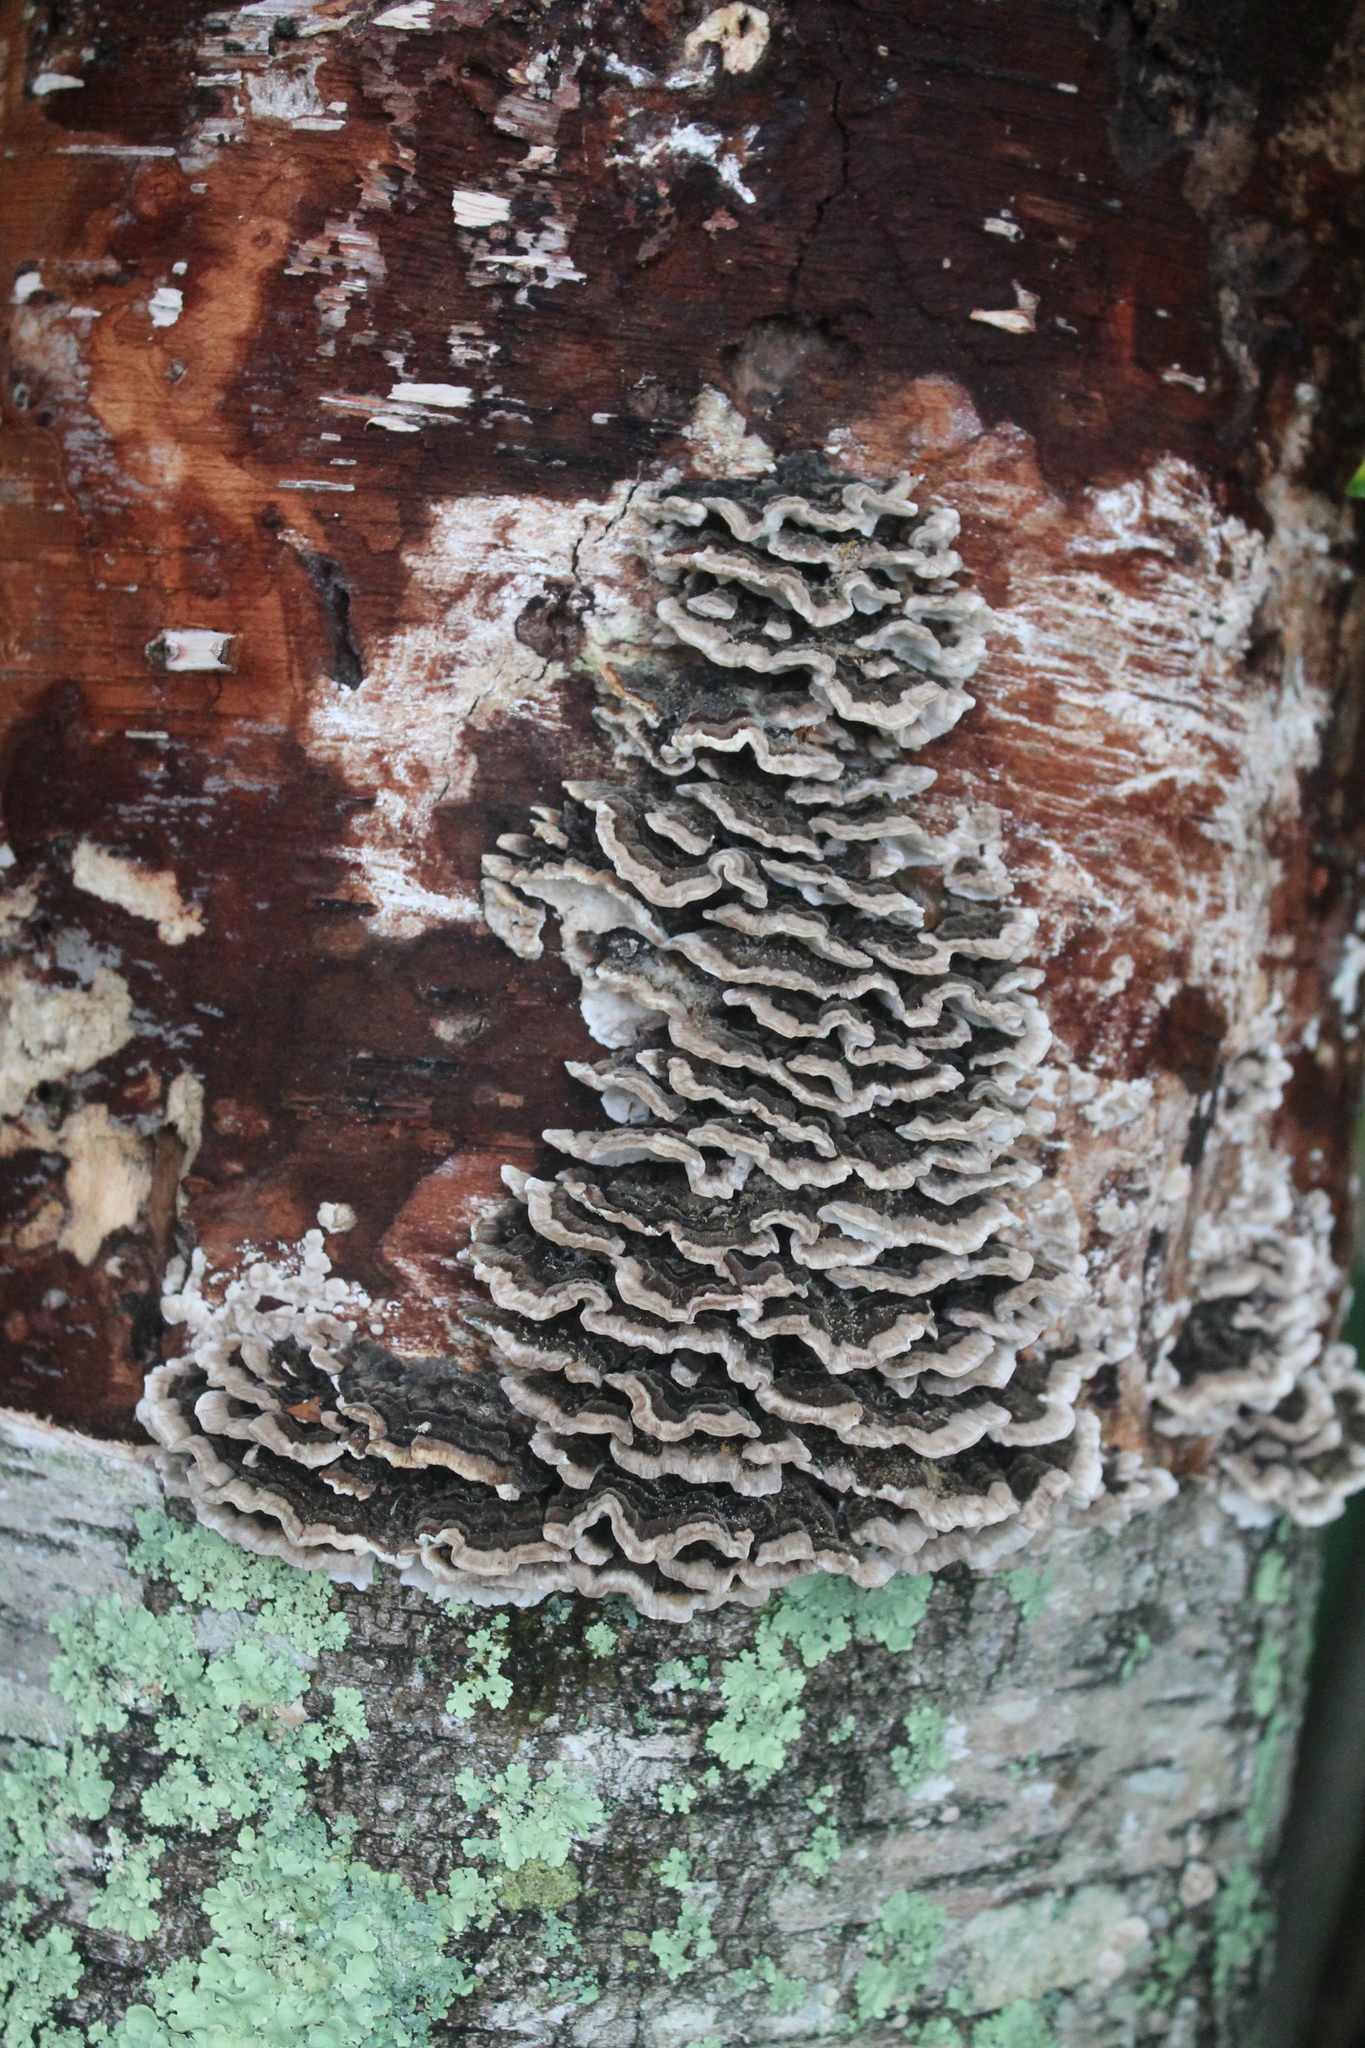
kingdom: Fungi
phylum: Basidiomycota
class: Agaricomycetes
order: Polyporales
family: Polyporaceae
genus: Trametes
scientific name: Trametes versicolor
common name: Turkeytail
